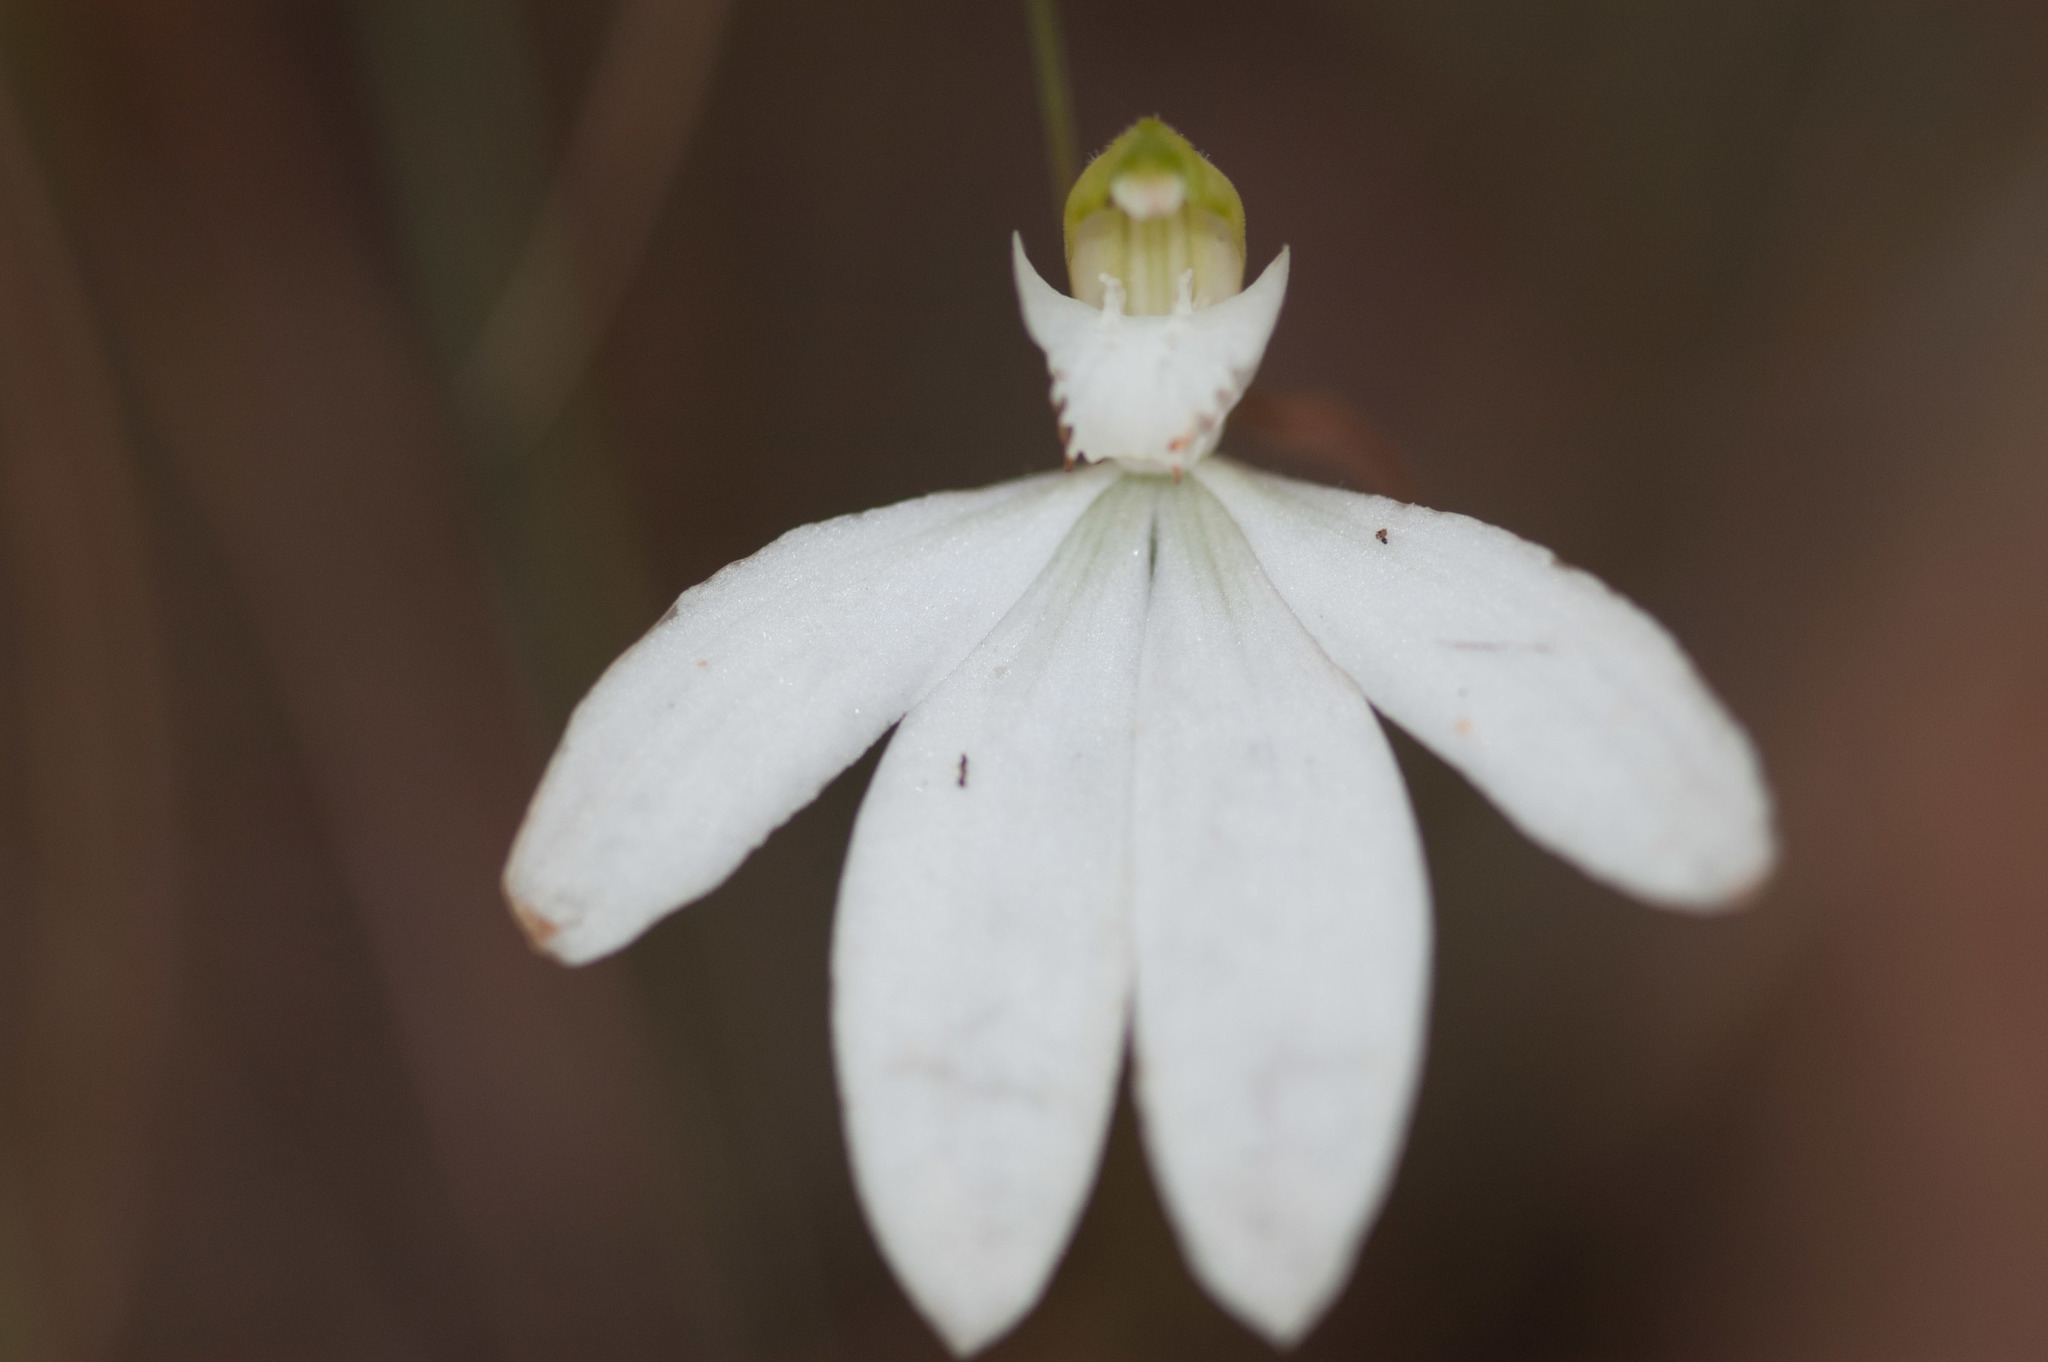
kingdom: Plantae
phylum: Tracheophyta
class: Liliopsida
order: Asparagales
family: Orchidaceae
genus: Caladenia
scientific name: Caladenia catenata
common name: White caladenia
